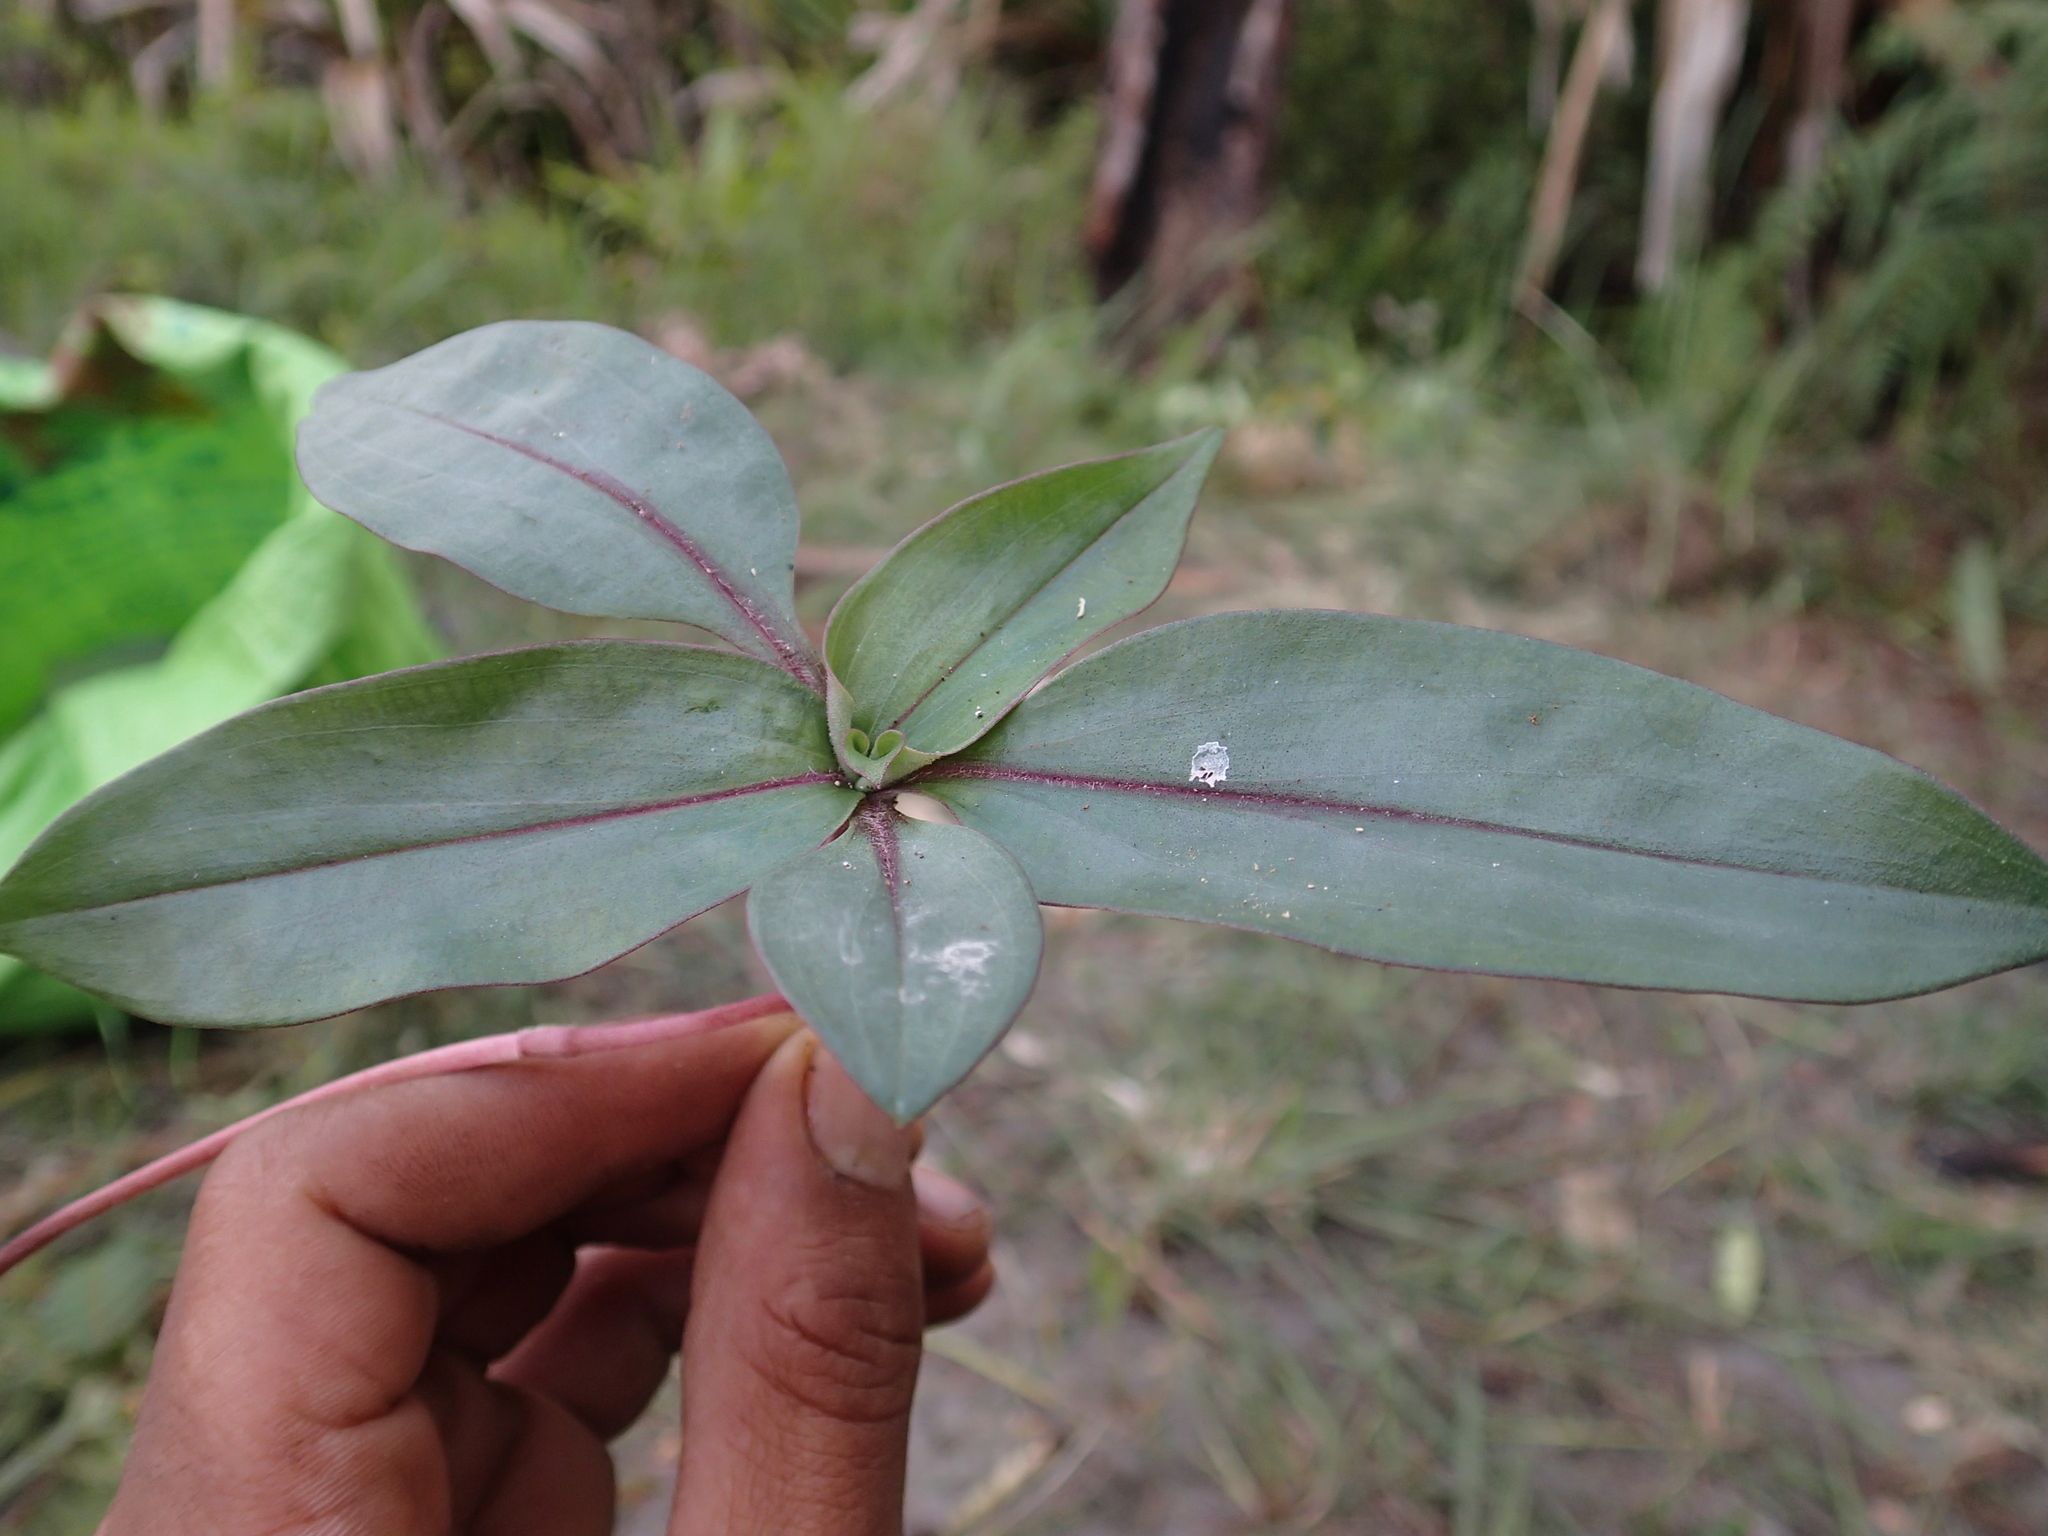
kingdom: Plantae
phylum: Tracheophyta
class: Liliopsida
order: Commelinales
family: Commelinaceae
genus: Pseudoparis
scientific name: Pseudoparis cauliflora
